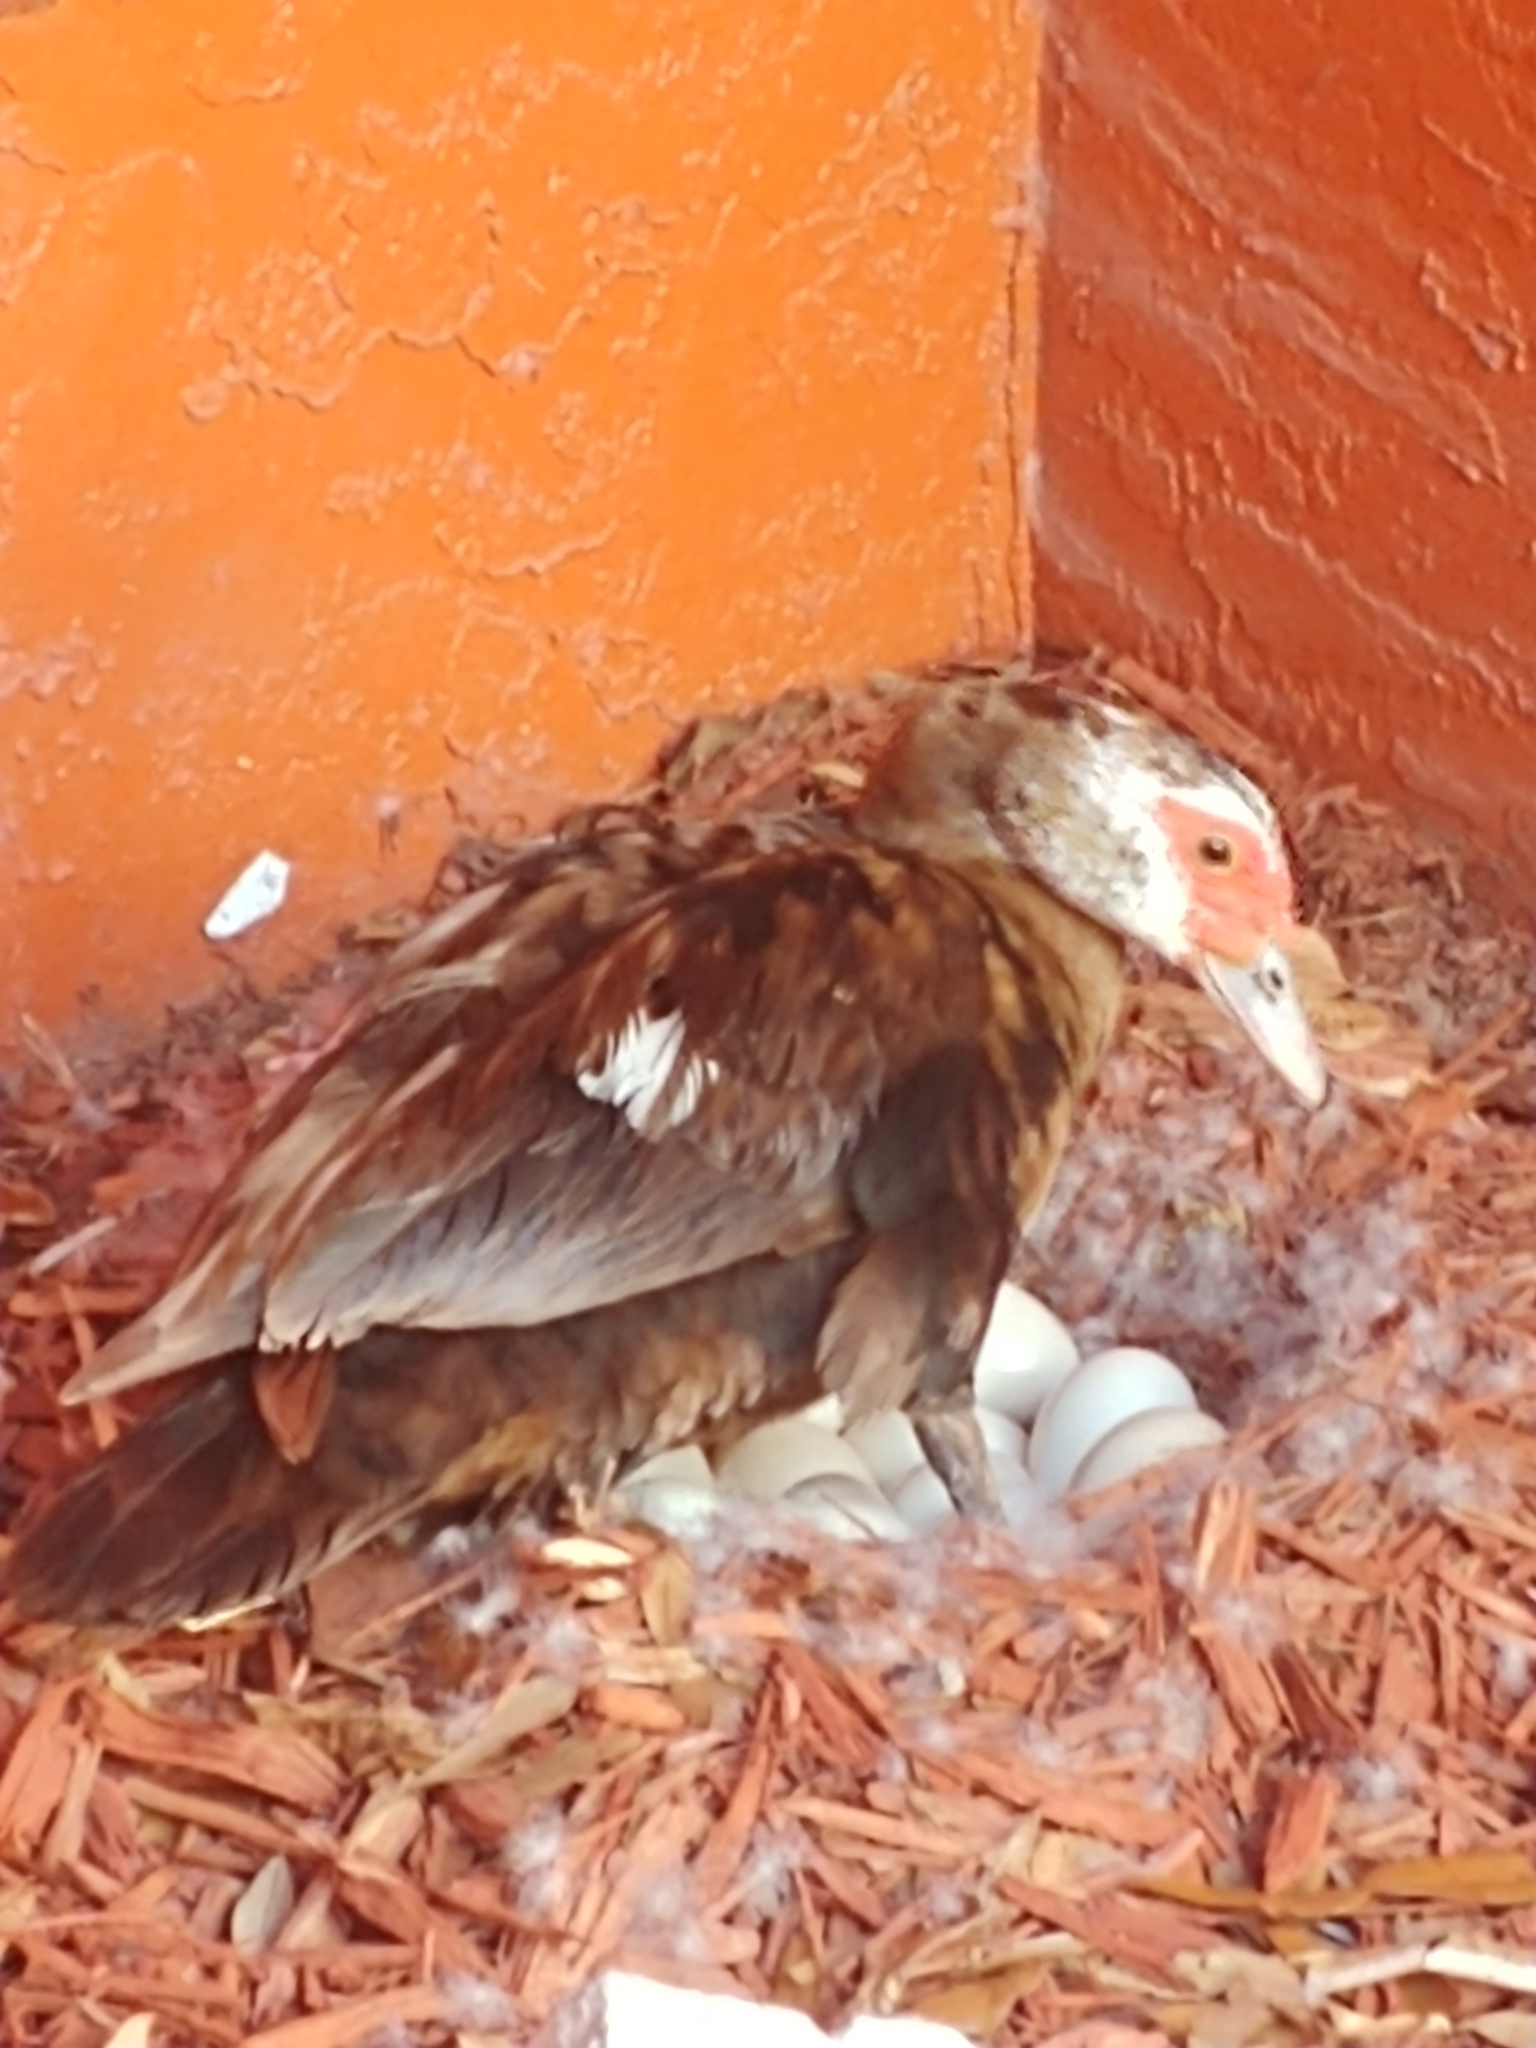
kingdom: Animalia
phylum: Chordata
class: Aves
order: Anseriformes
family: Anatidae
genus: Cairina
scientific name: Cairina moschata
